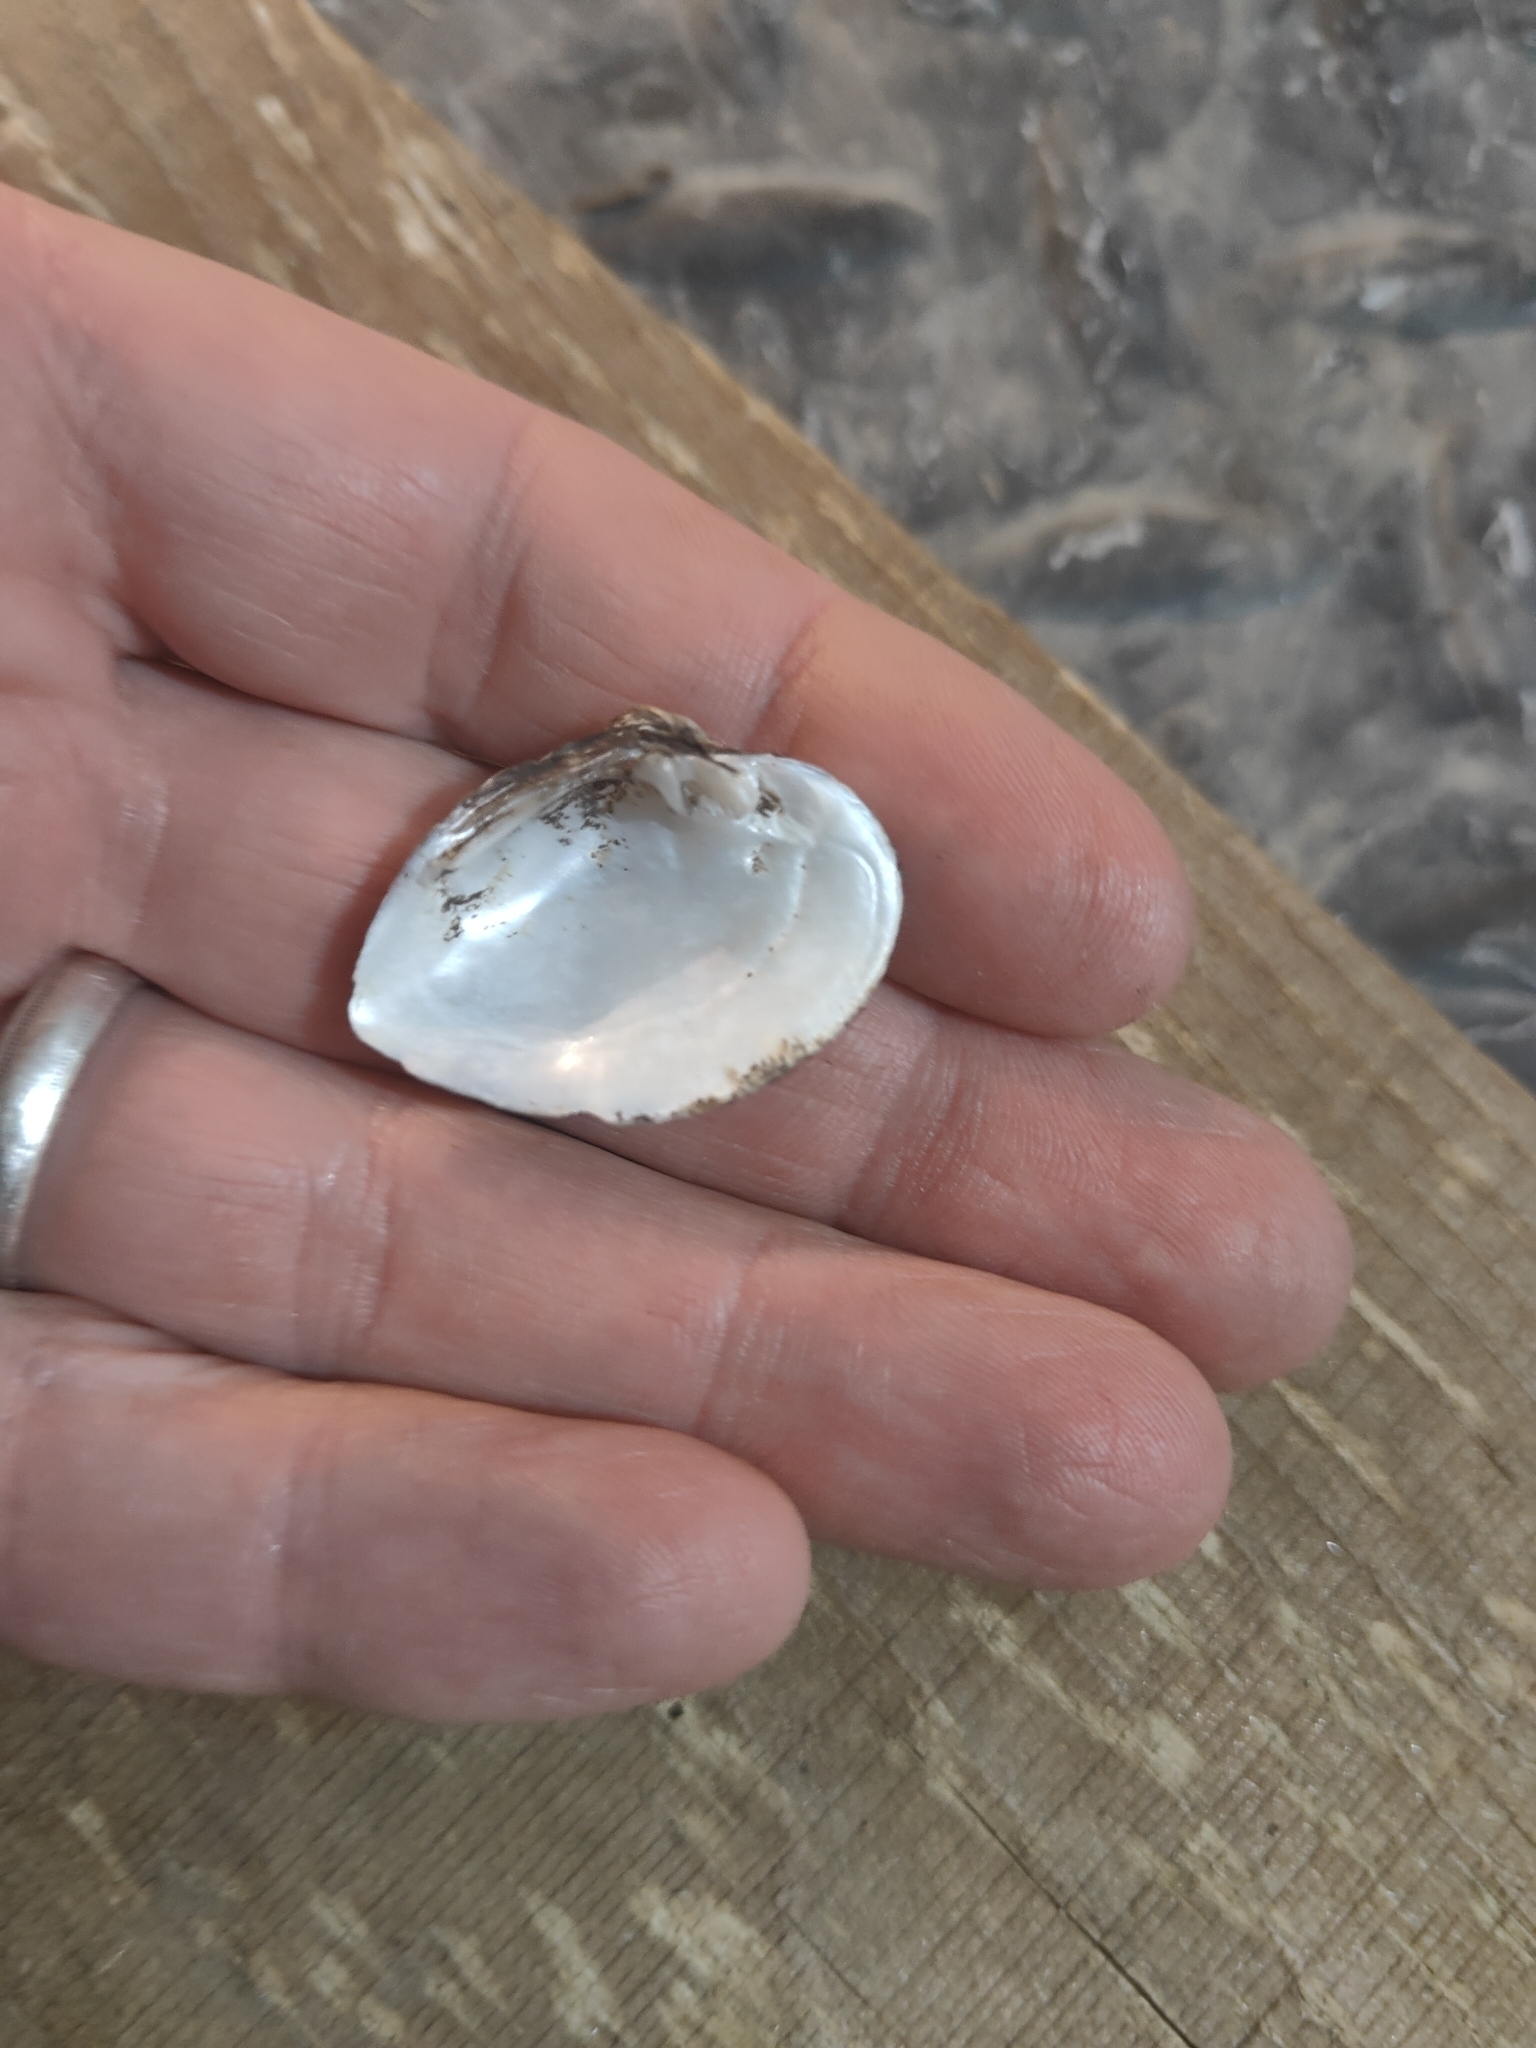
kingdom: Animalia
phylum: Mollusca
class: Bivalvia
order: Unionida
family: Unionidae
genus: Truncilla
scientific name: Truncilla truncata
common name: Deertoe
